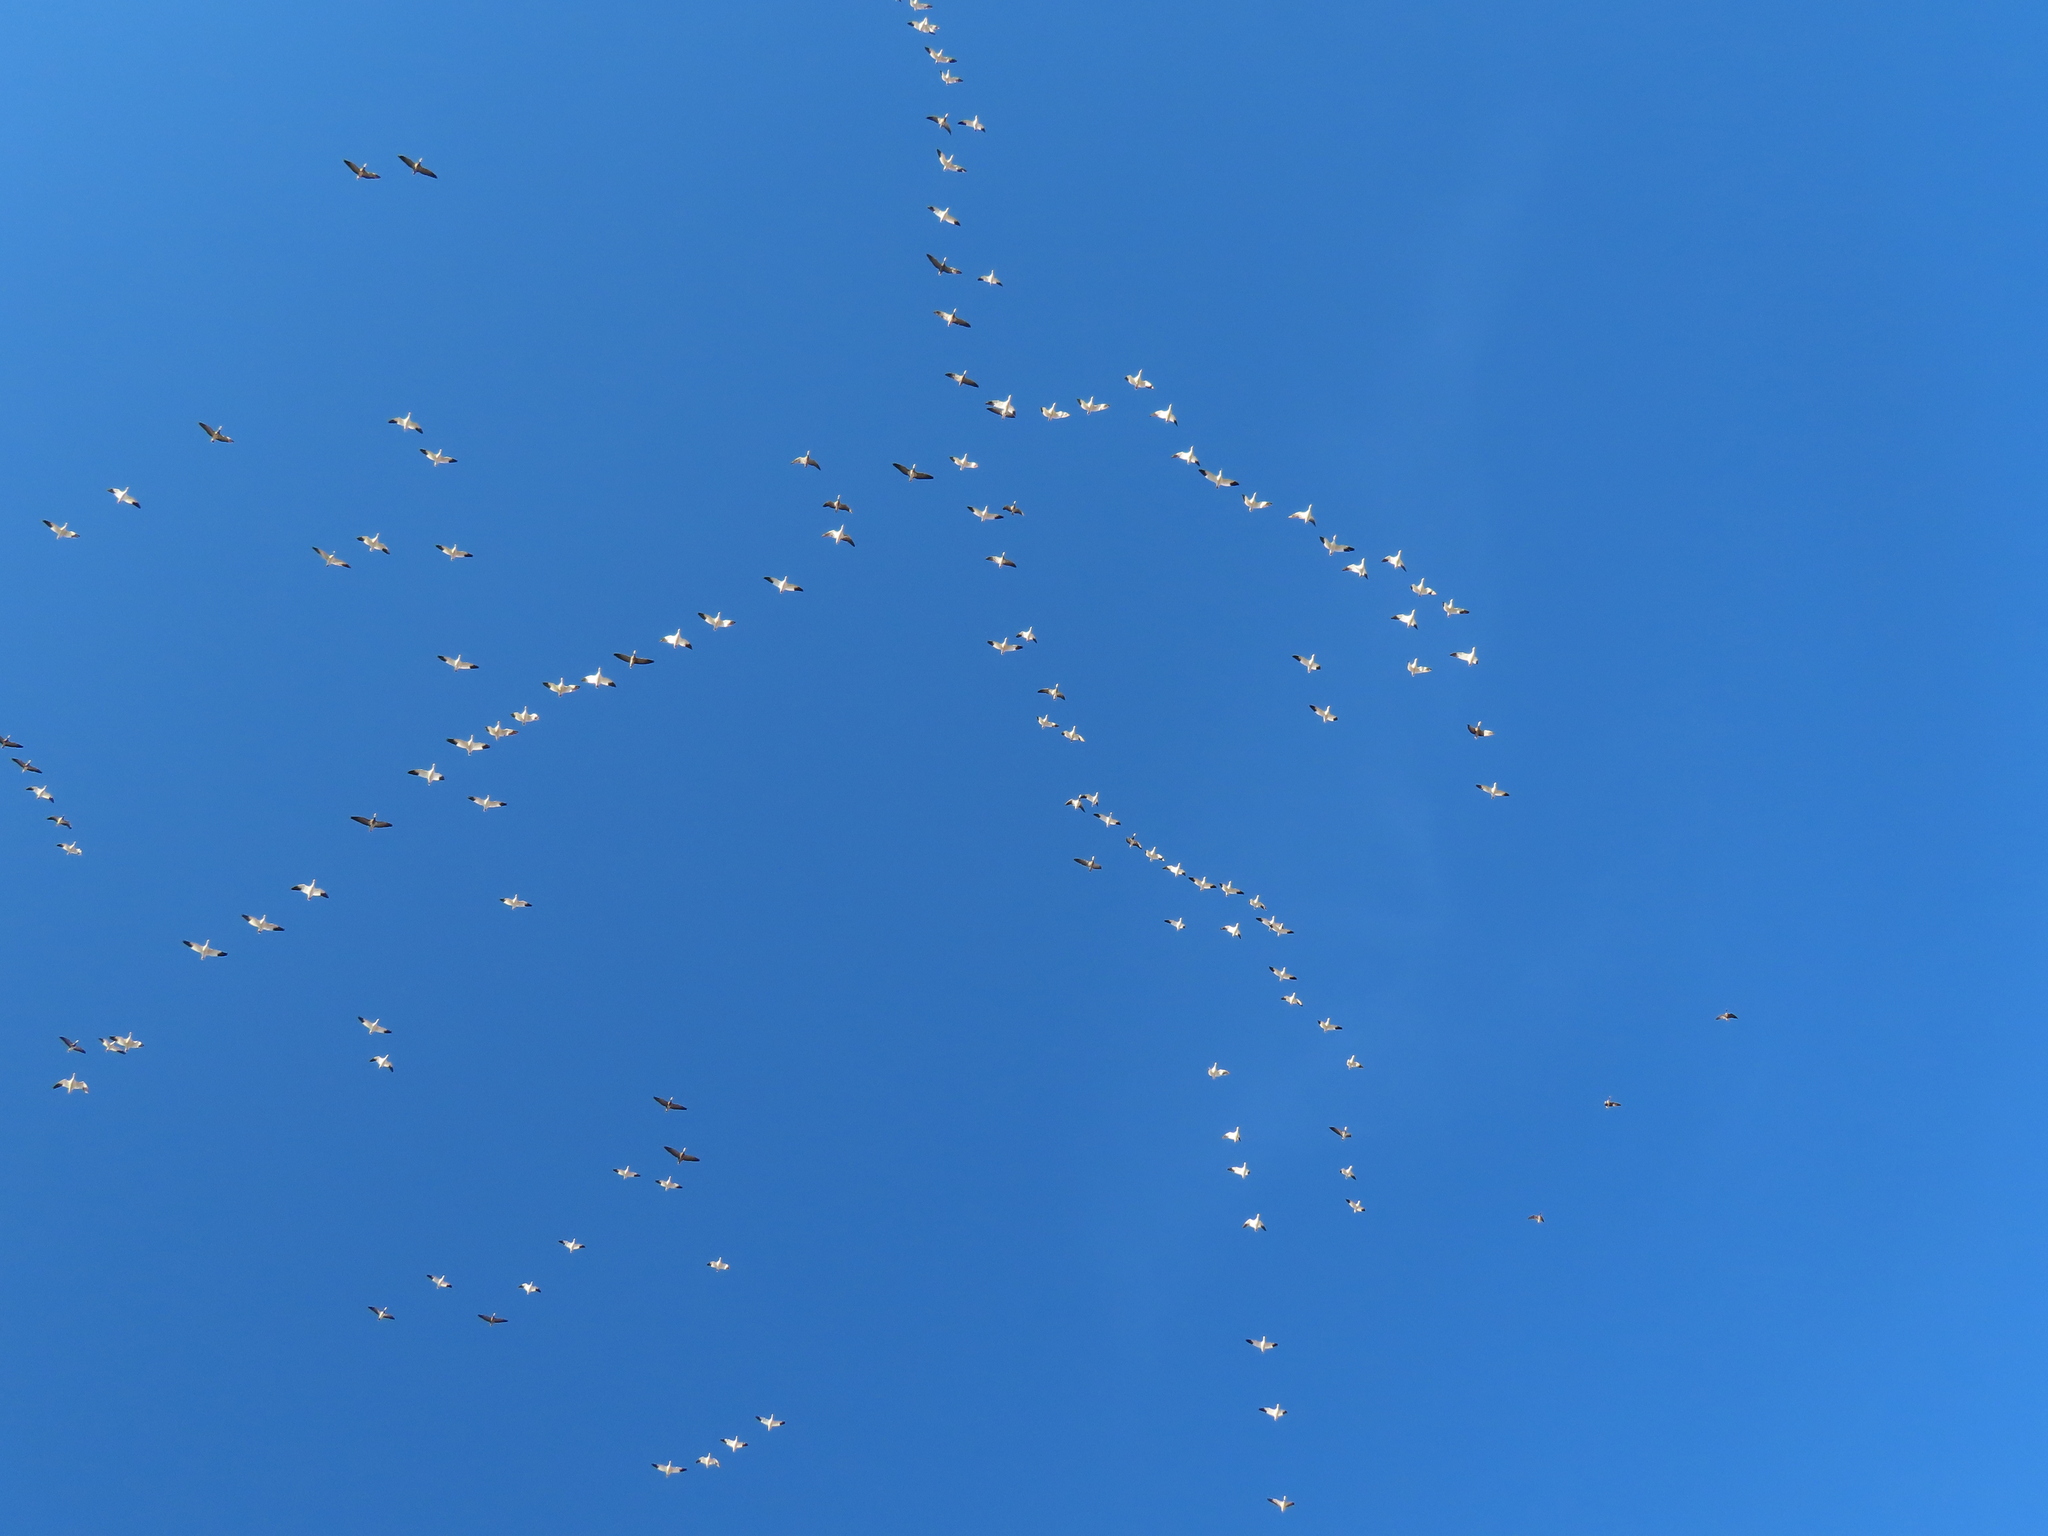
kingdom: Animalia
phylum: Chordata
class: Aves
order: Anseriformes
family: Anatidae
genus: Anser
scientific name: Anser caerulescens
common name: Snow goose
